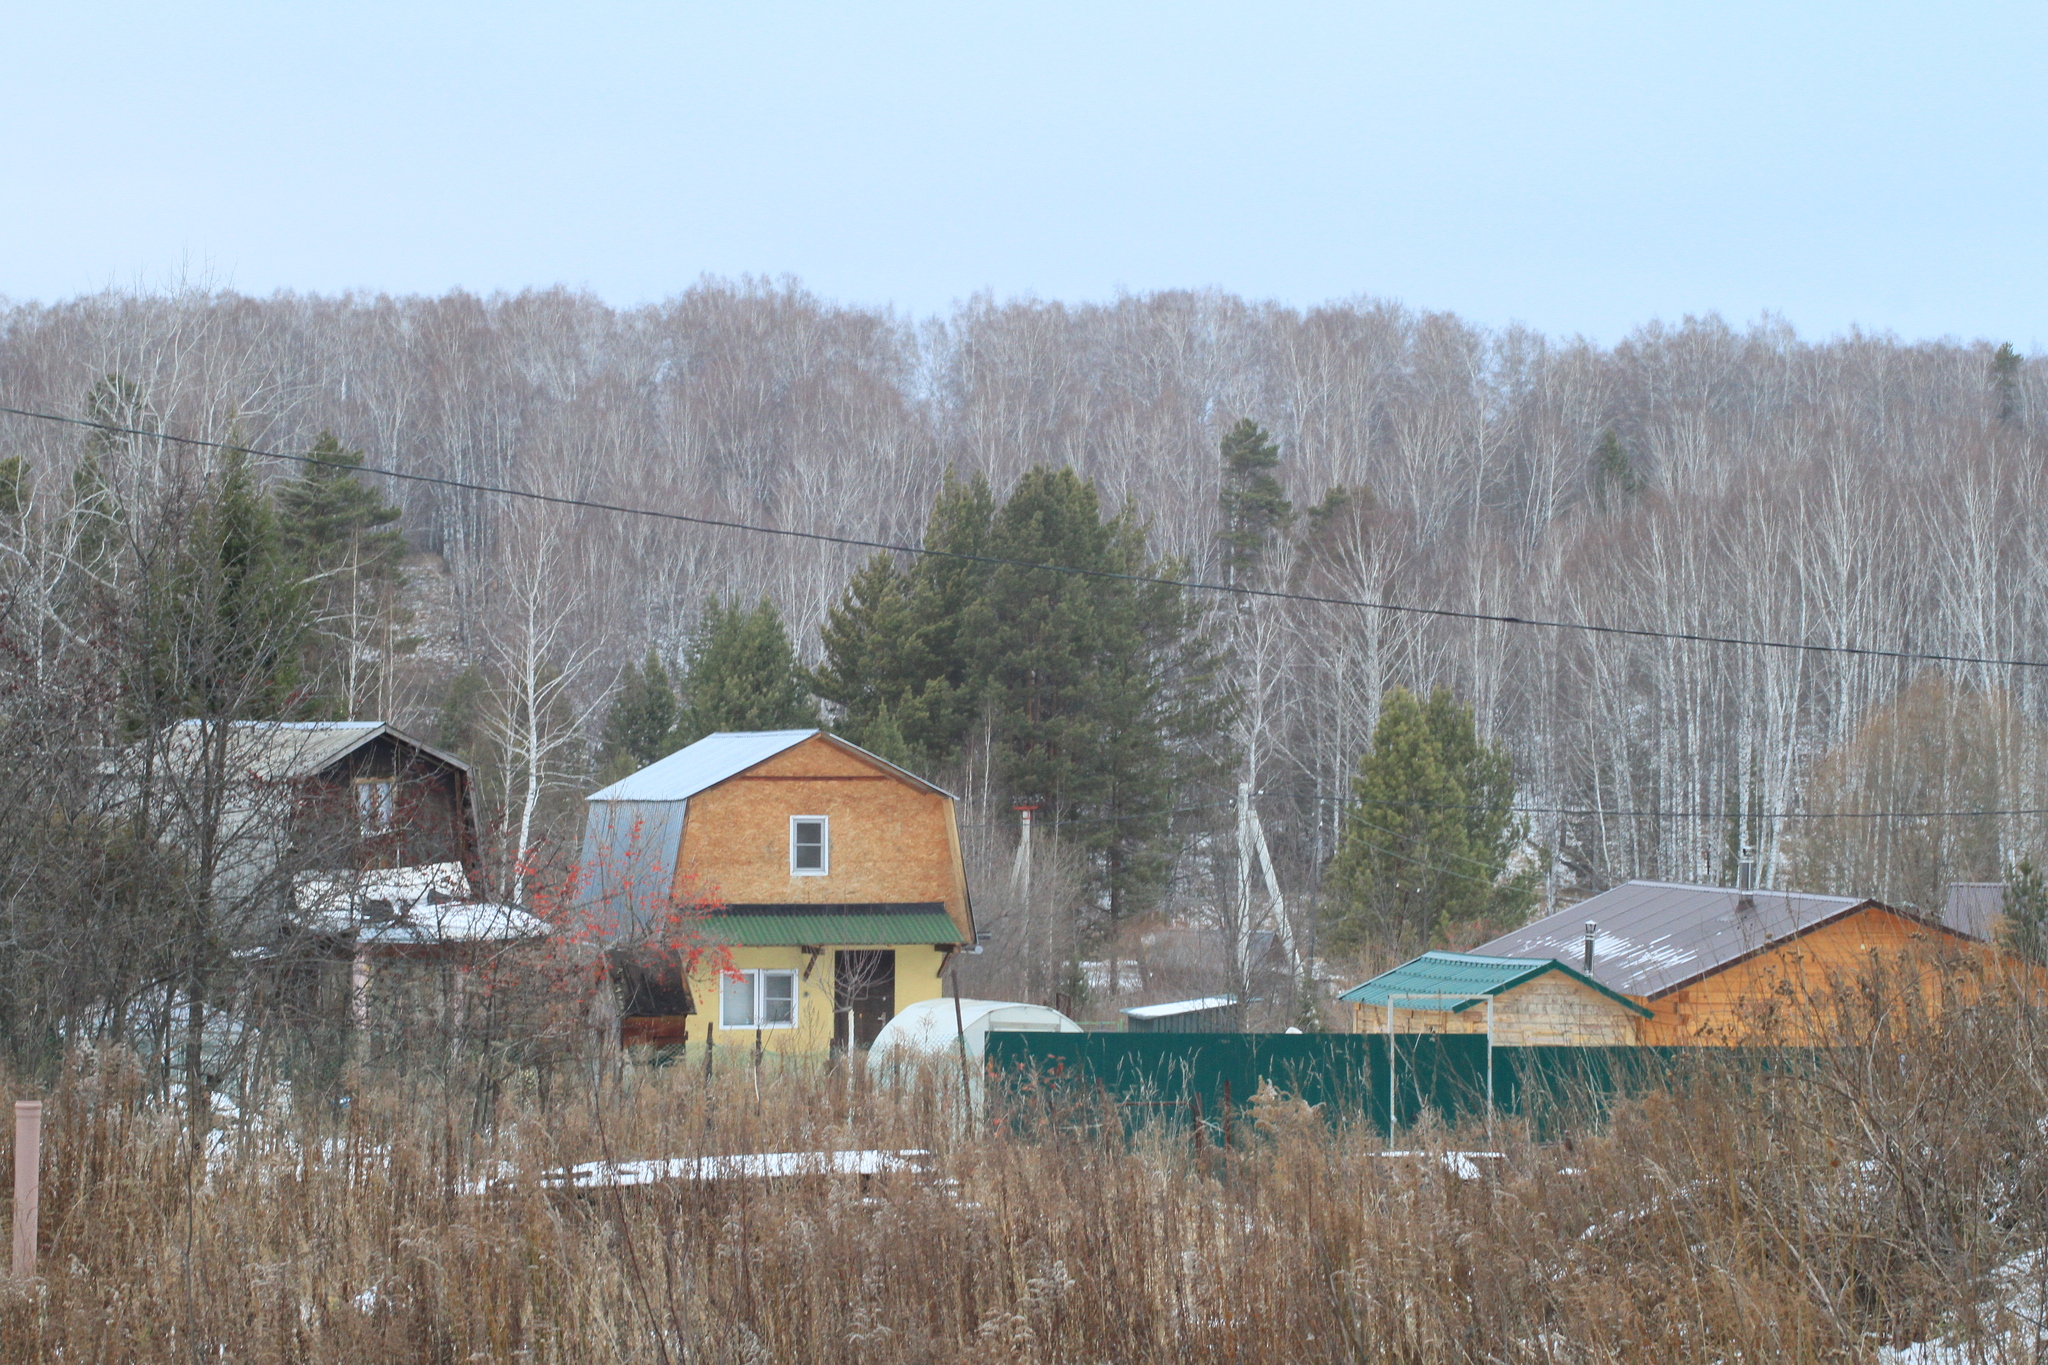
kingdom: Plantae
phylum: Tracheophyta
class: Pinopsida
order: Pinales
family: Pinaceae
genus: Pinus
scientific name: Pinus sylvestris
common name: Scots pine
